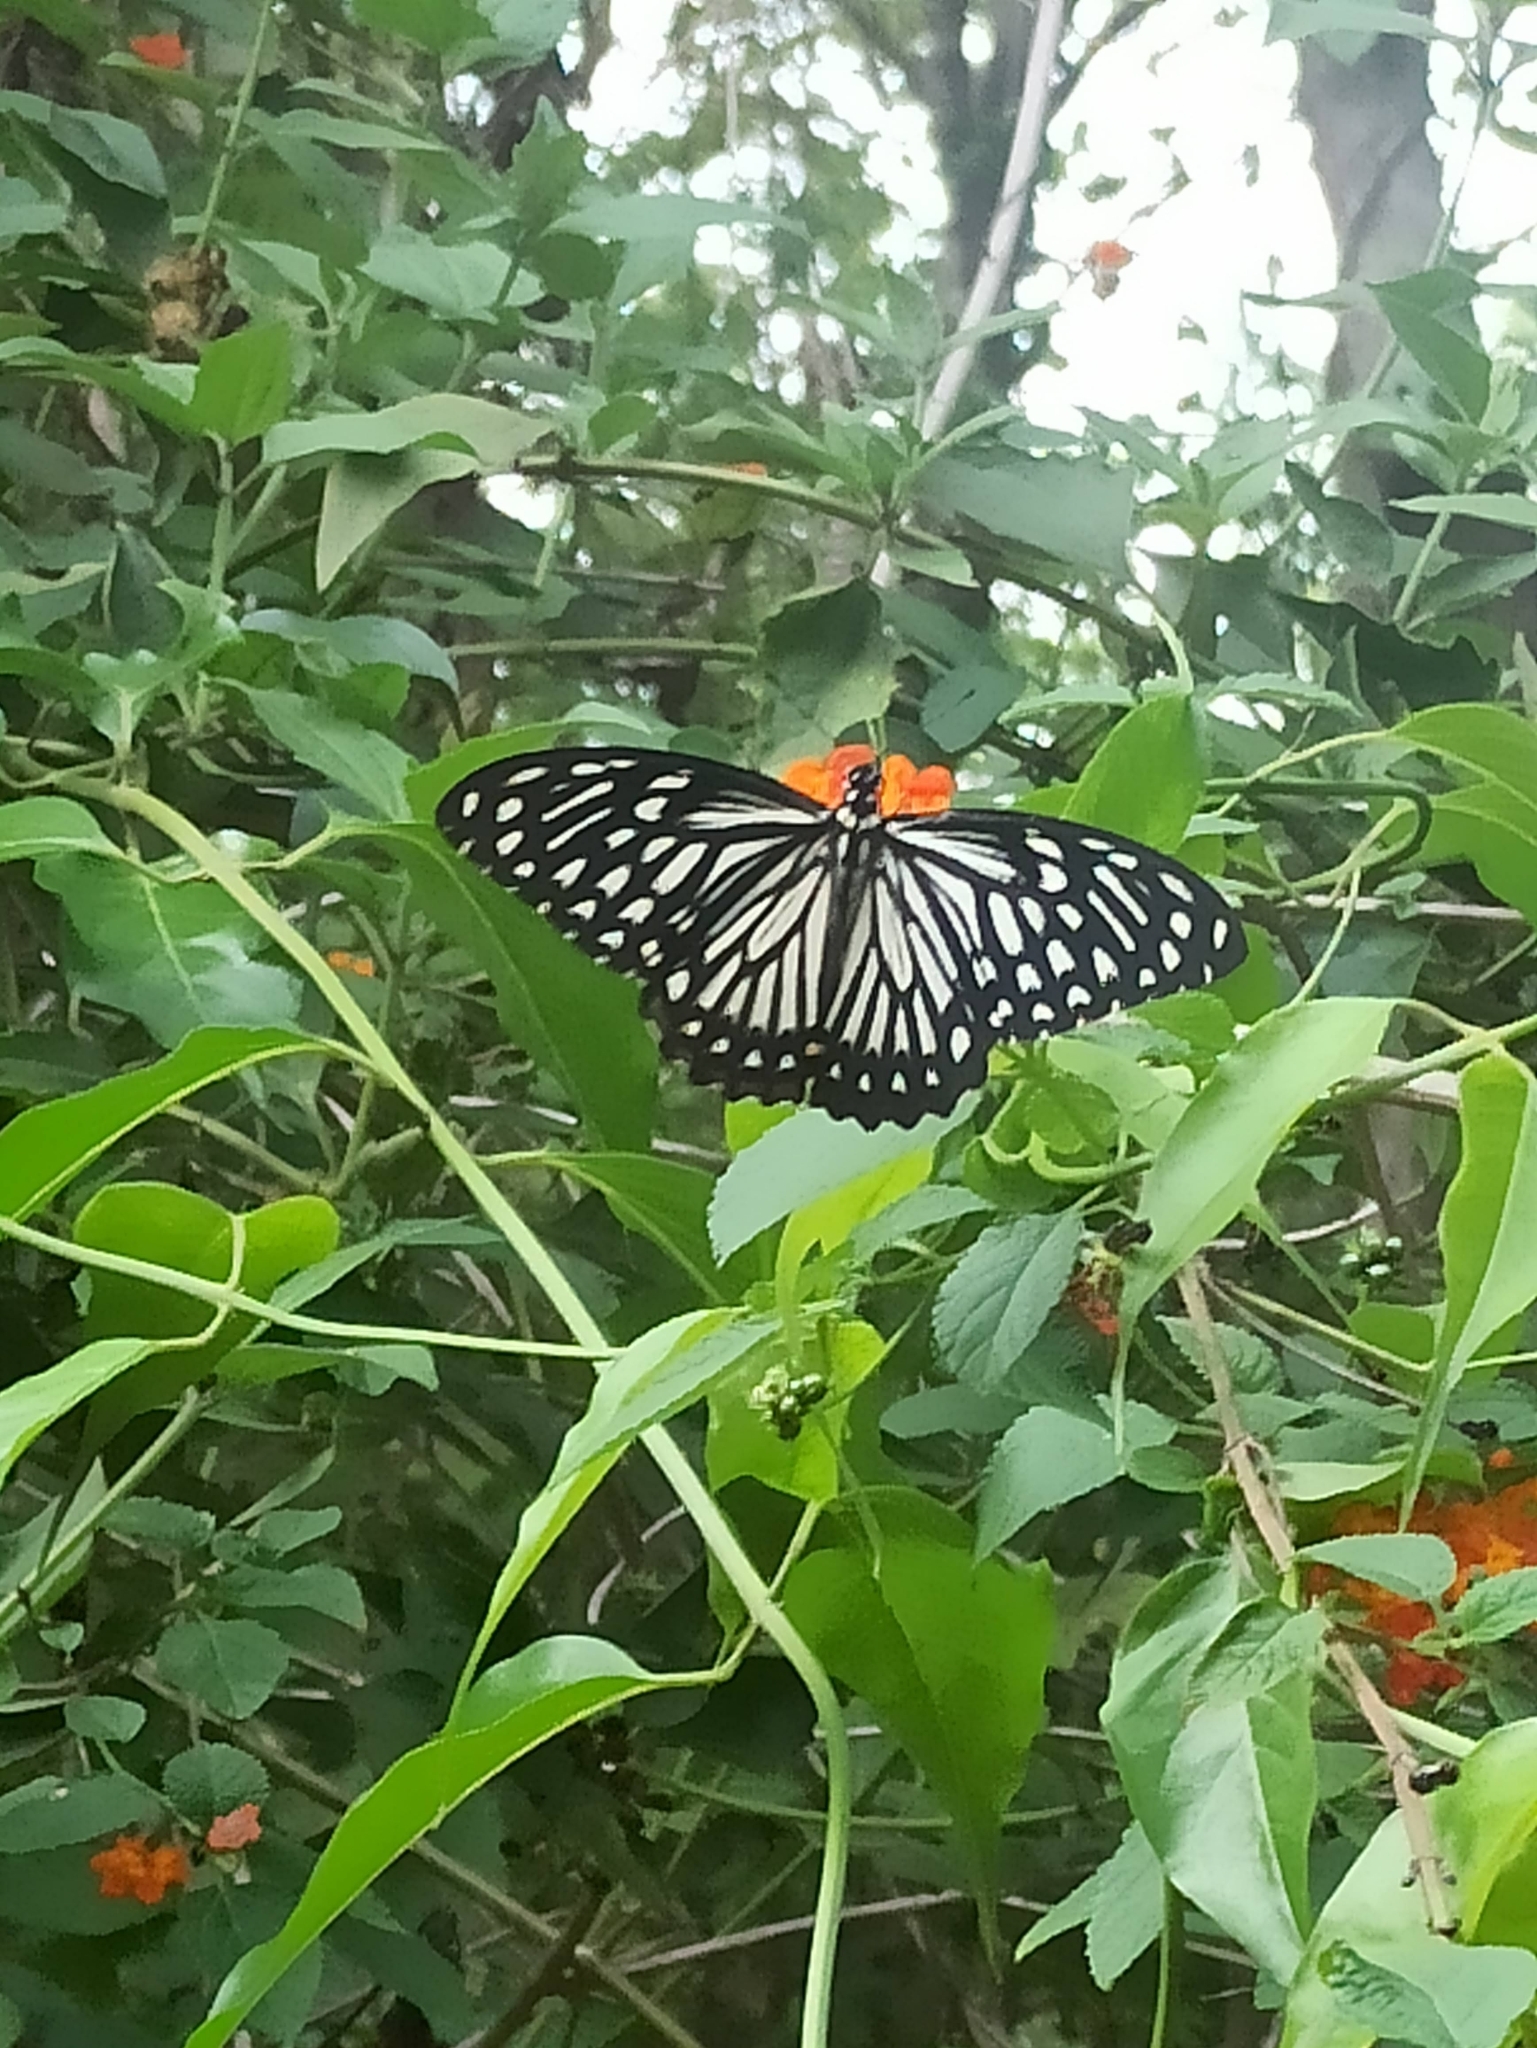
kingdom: Animalia
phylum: Arthropoda
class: Insecta
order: Lepidoptera
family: Papilionidae
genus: Chilasa
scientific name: Chilasa clytia
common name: Common mime
